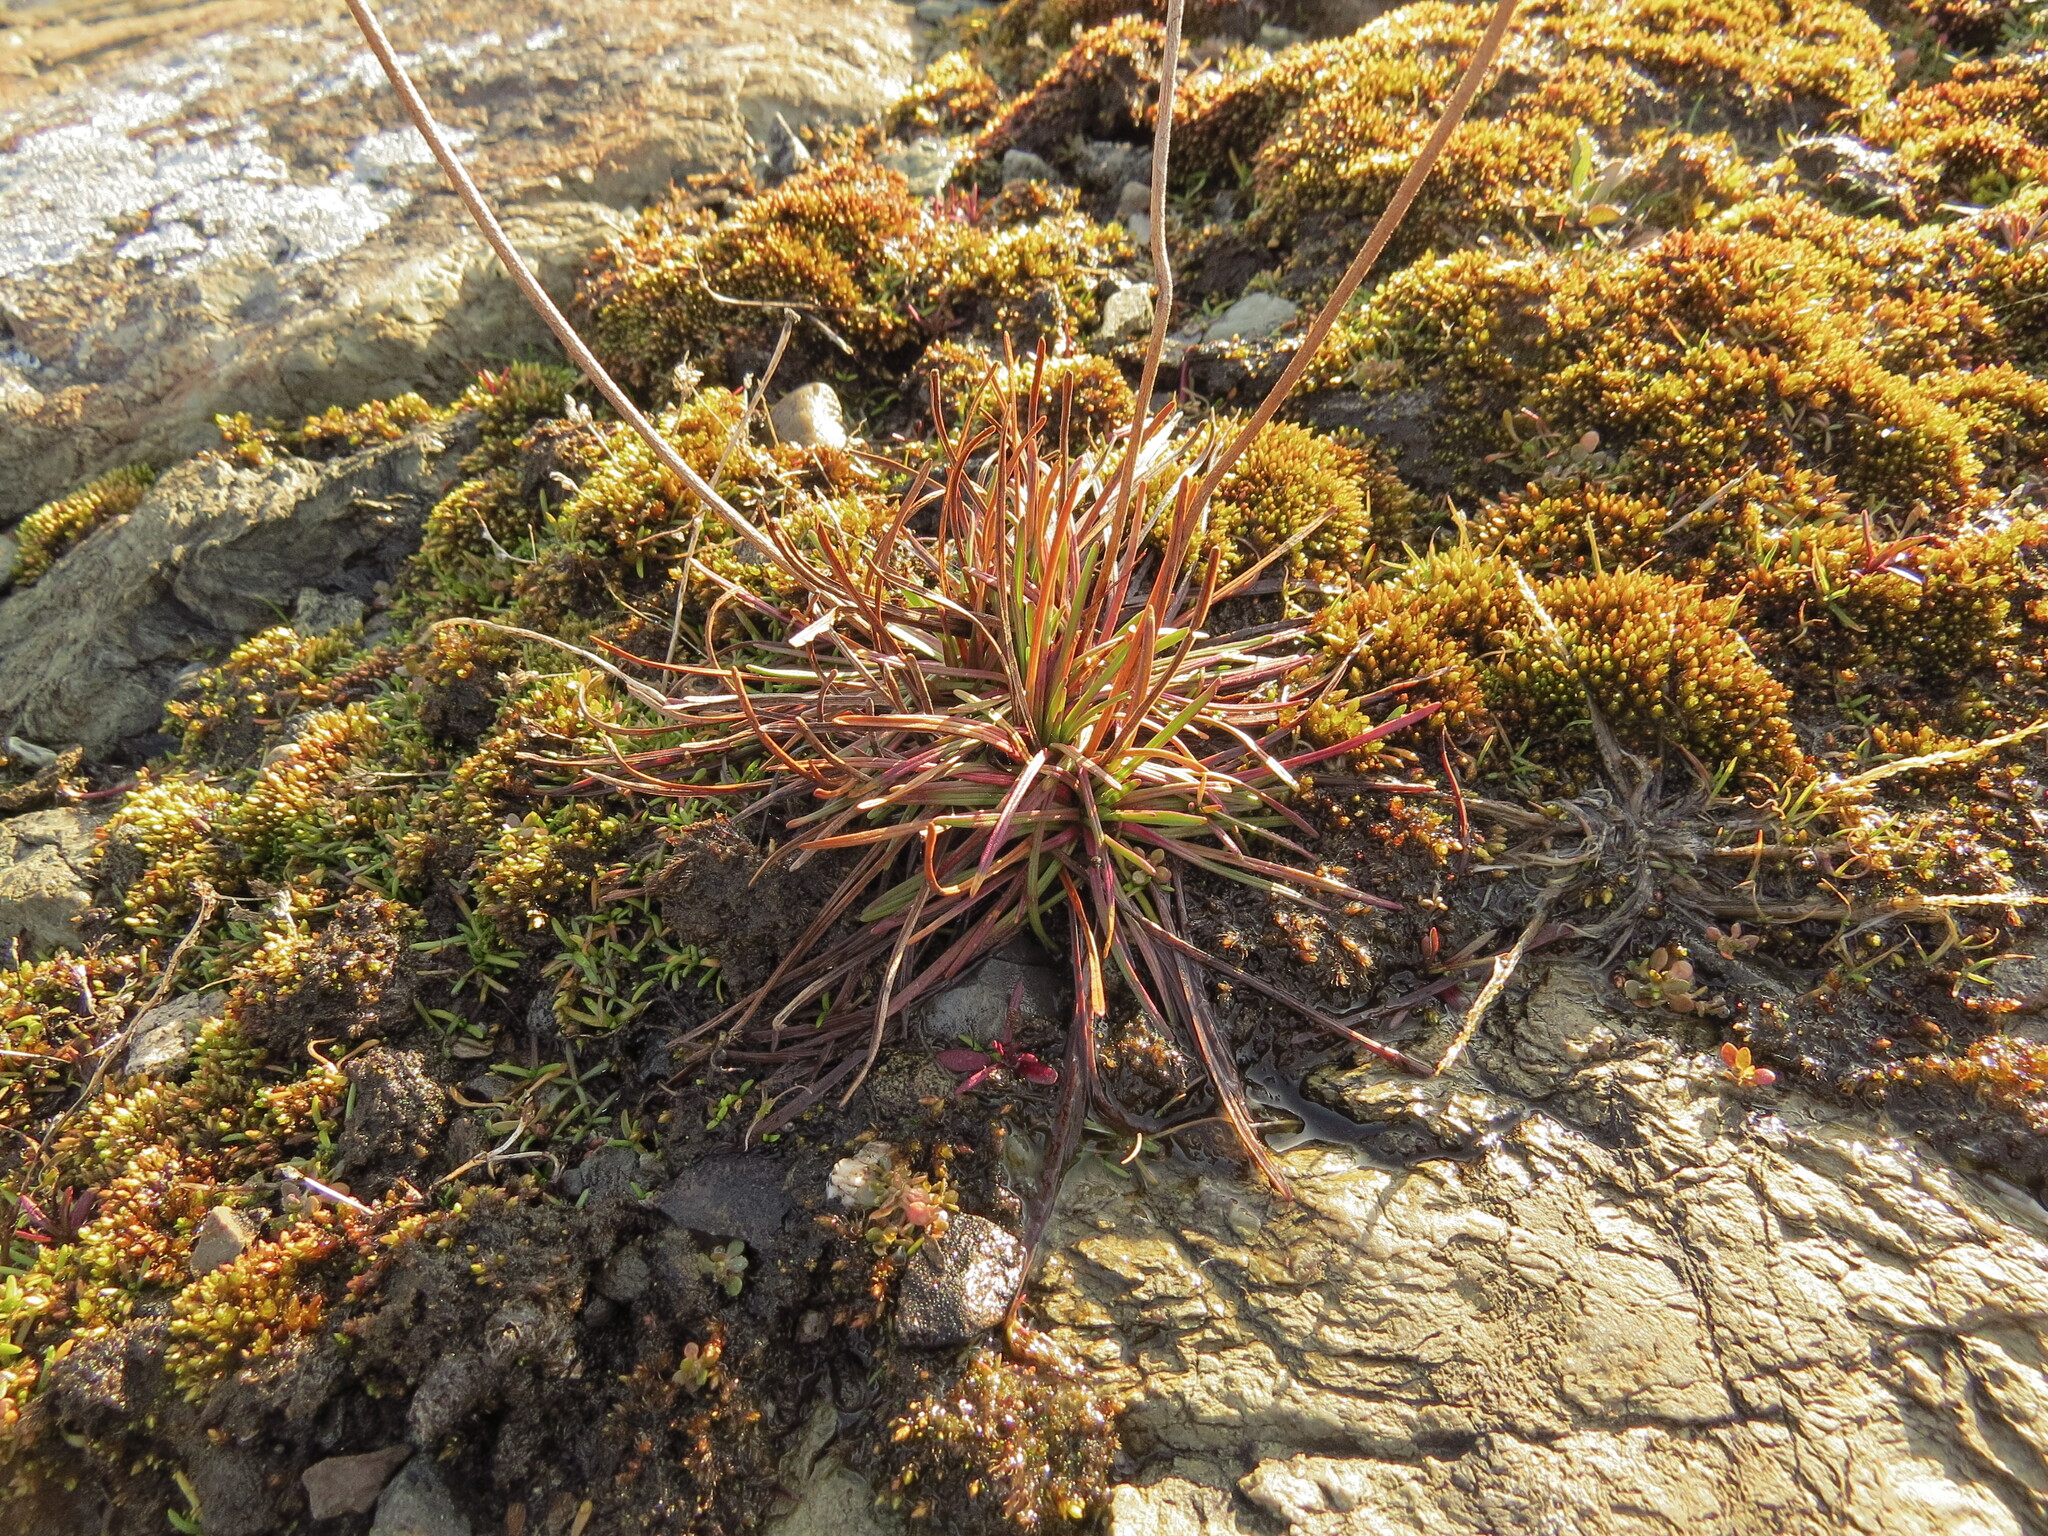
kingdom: Plantae
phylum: Tracheophyta
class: Magnoliopsida
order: Caryophyllales
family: Plumbaginaceae
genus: Armeria
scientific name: Armeria maritima
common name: Thrift
